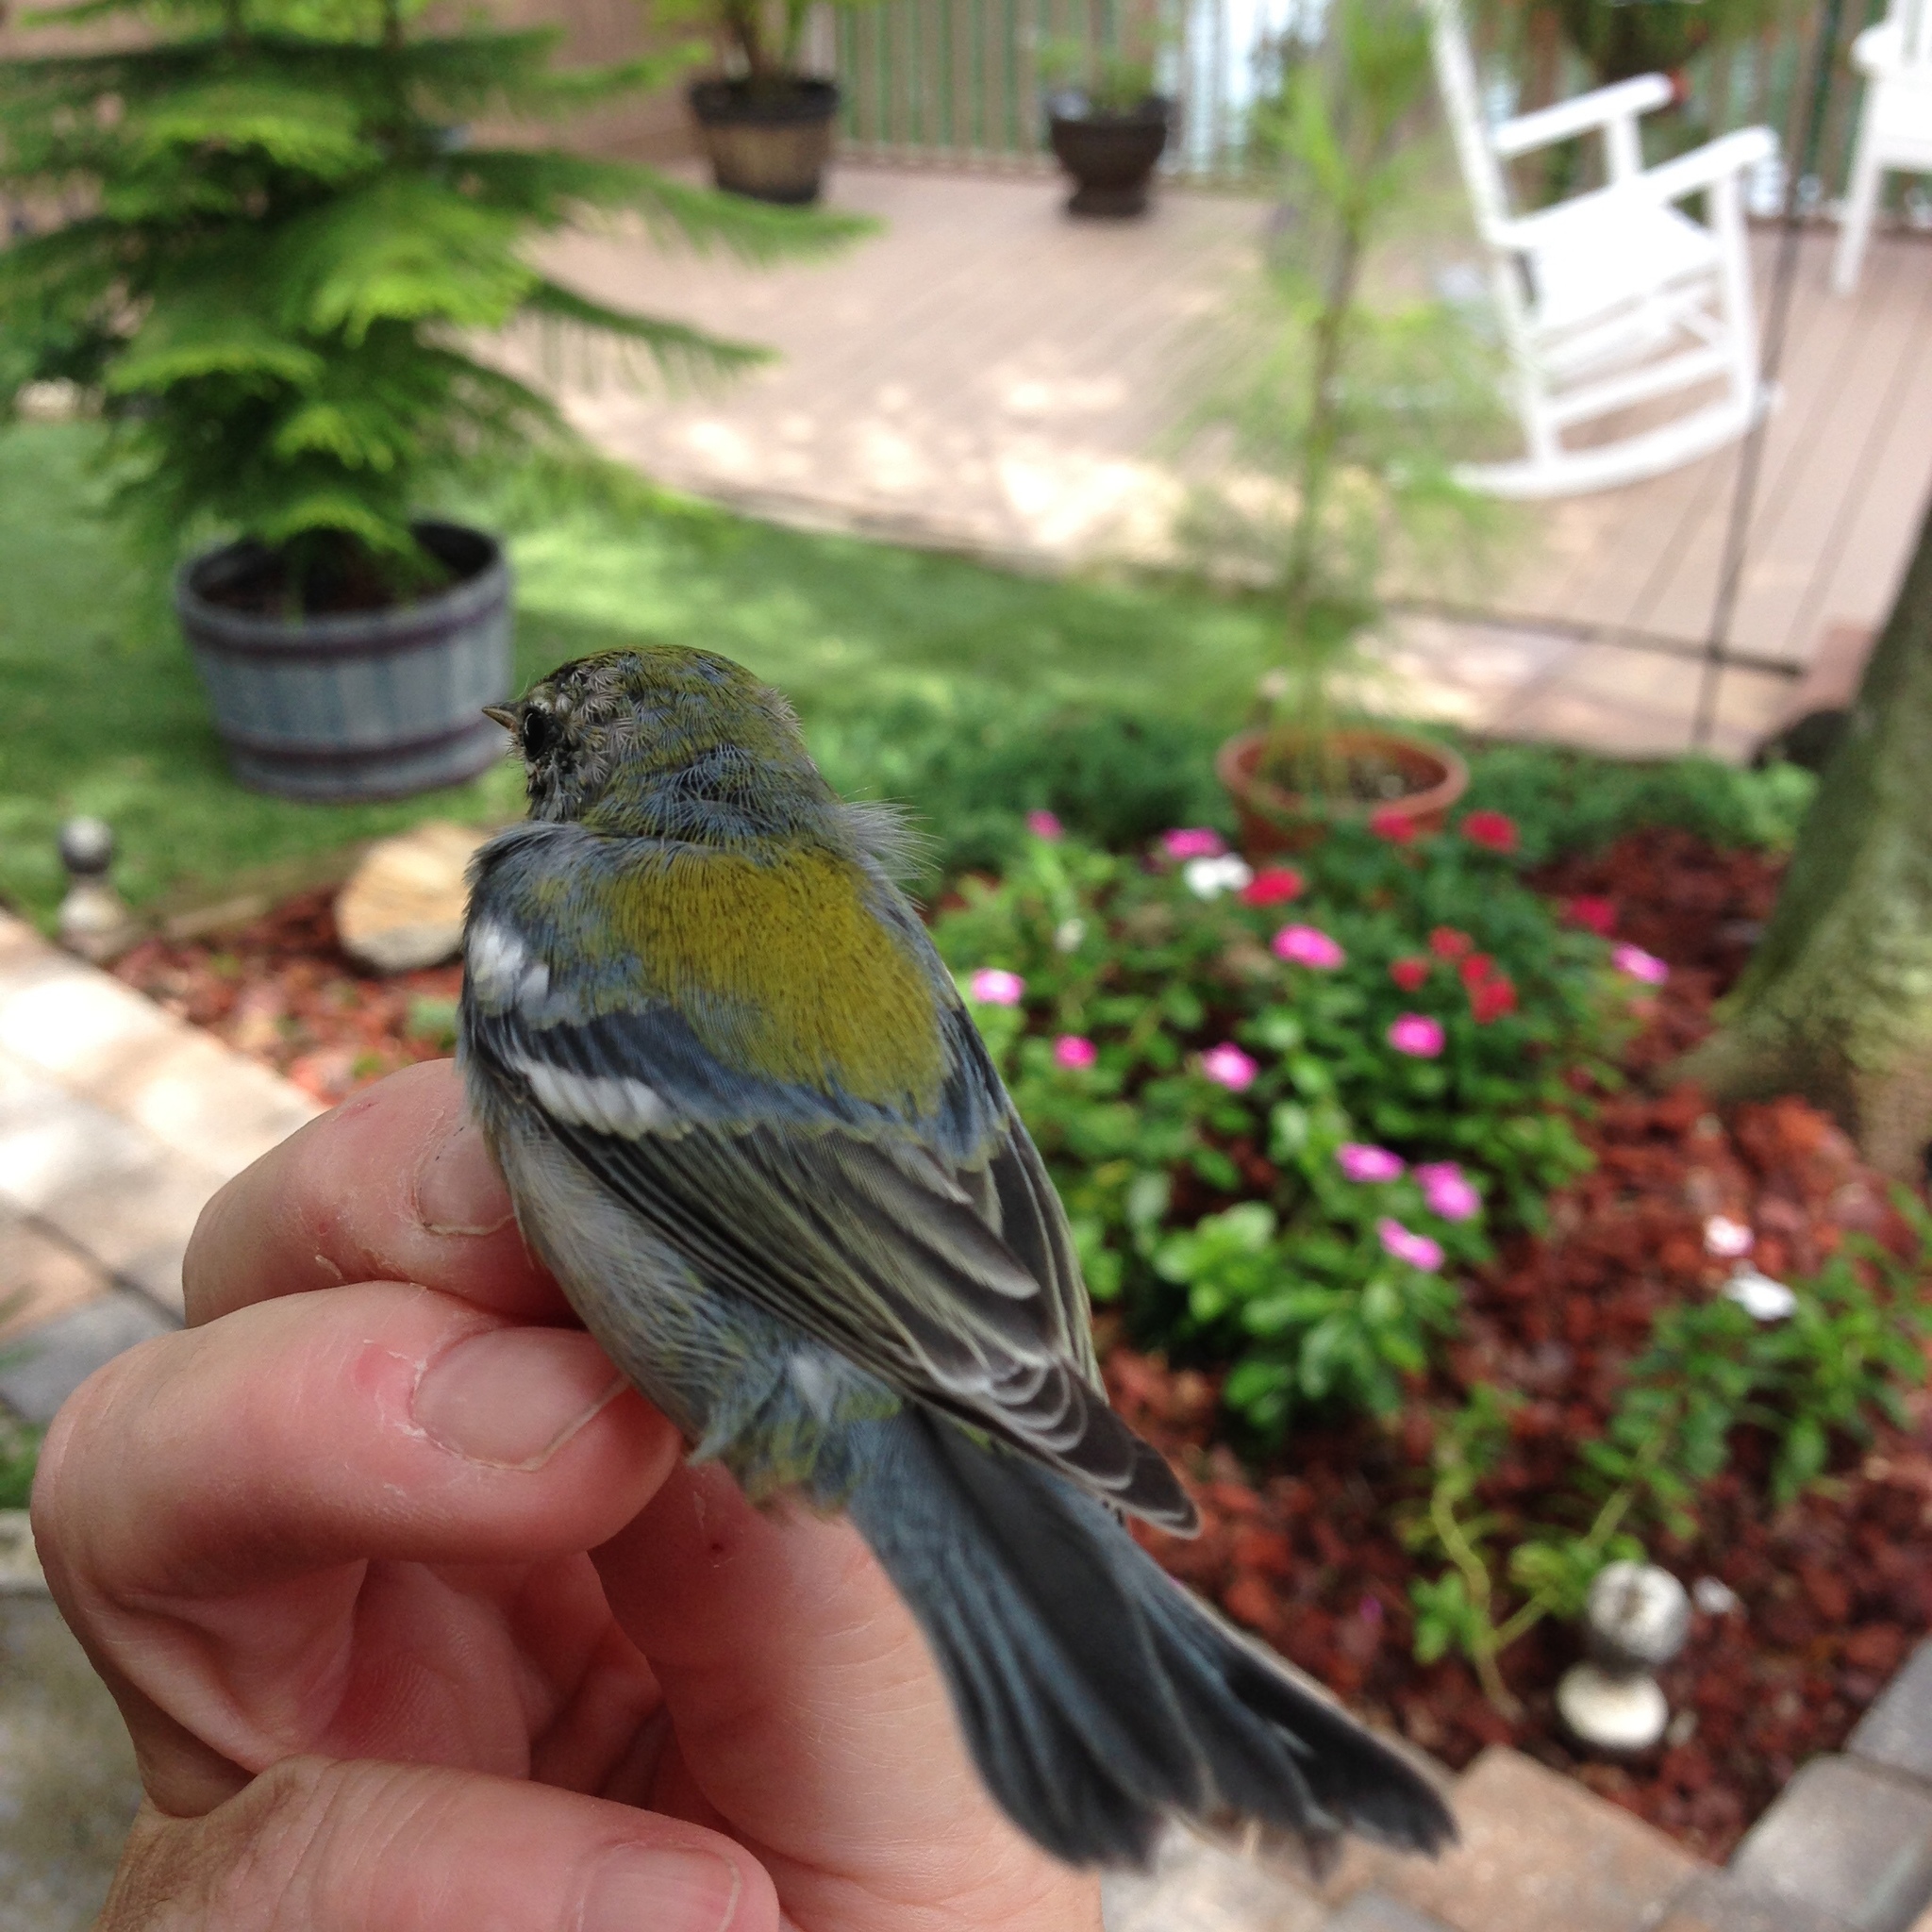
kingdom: Animalia
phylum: Chordata
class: Aves
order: Passeriformes
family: Parulidae
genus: Setophaga
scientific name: Setophaga americana
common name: Northern parula
